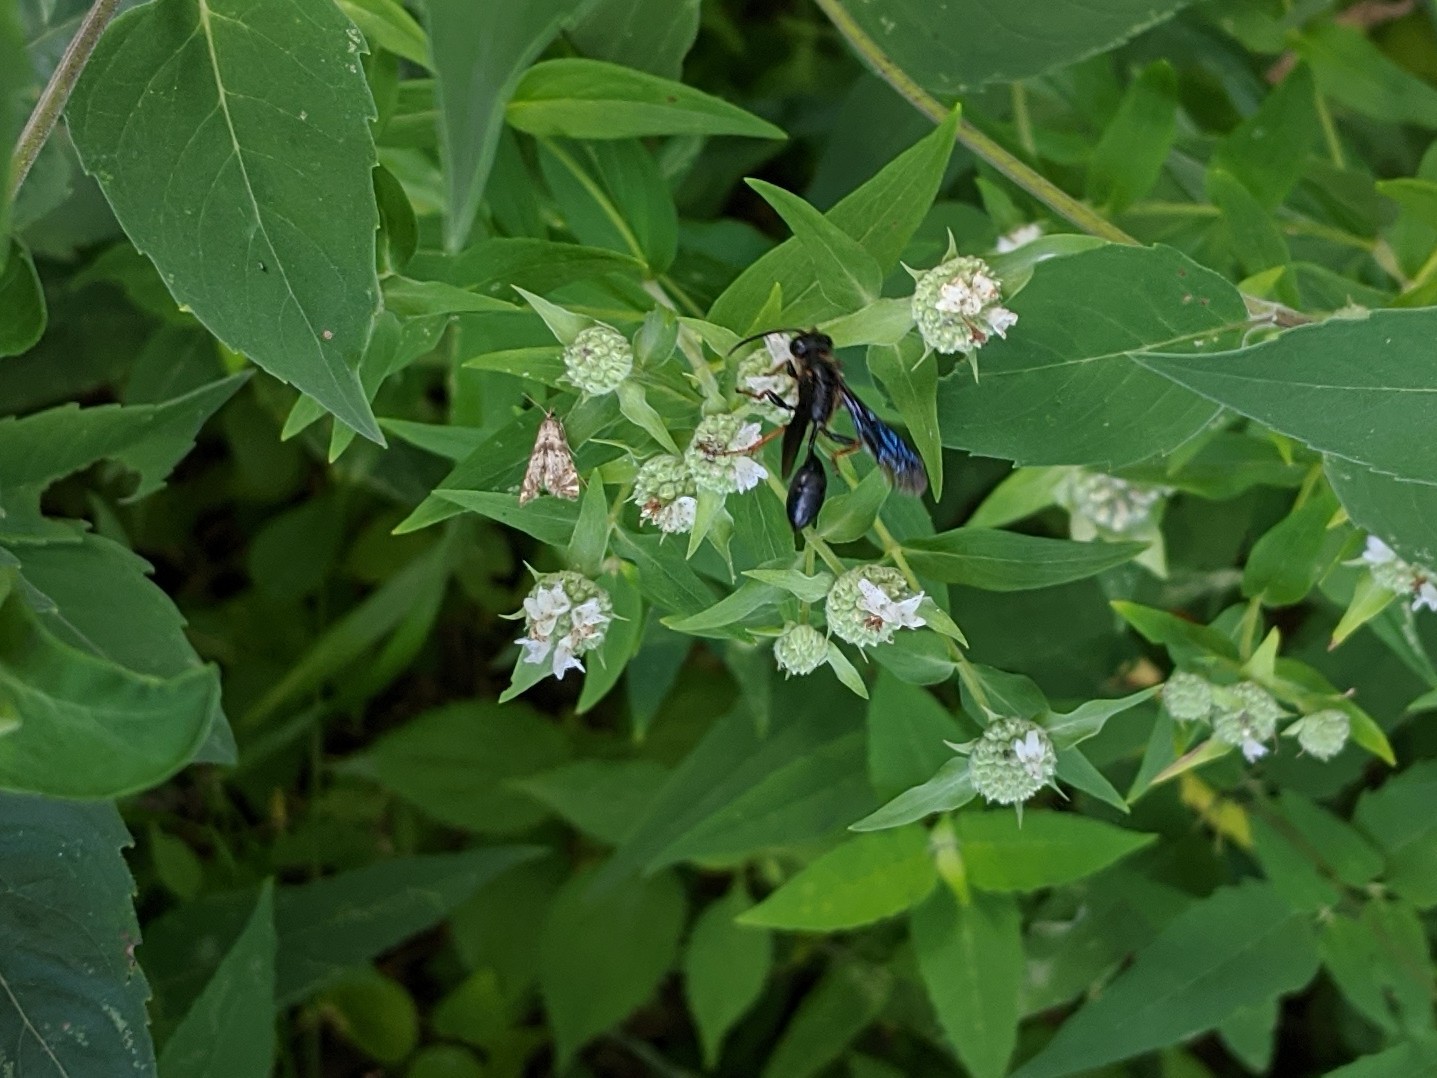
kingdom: Animalia
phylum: Arthropoda
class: Insecta
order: Hymenoptera
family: Sphecidae
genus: Isodontia
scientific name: Isodontia auripes
